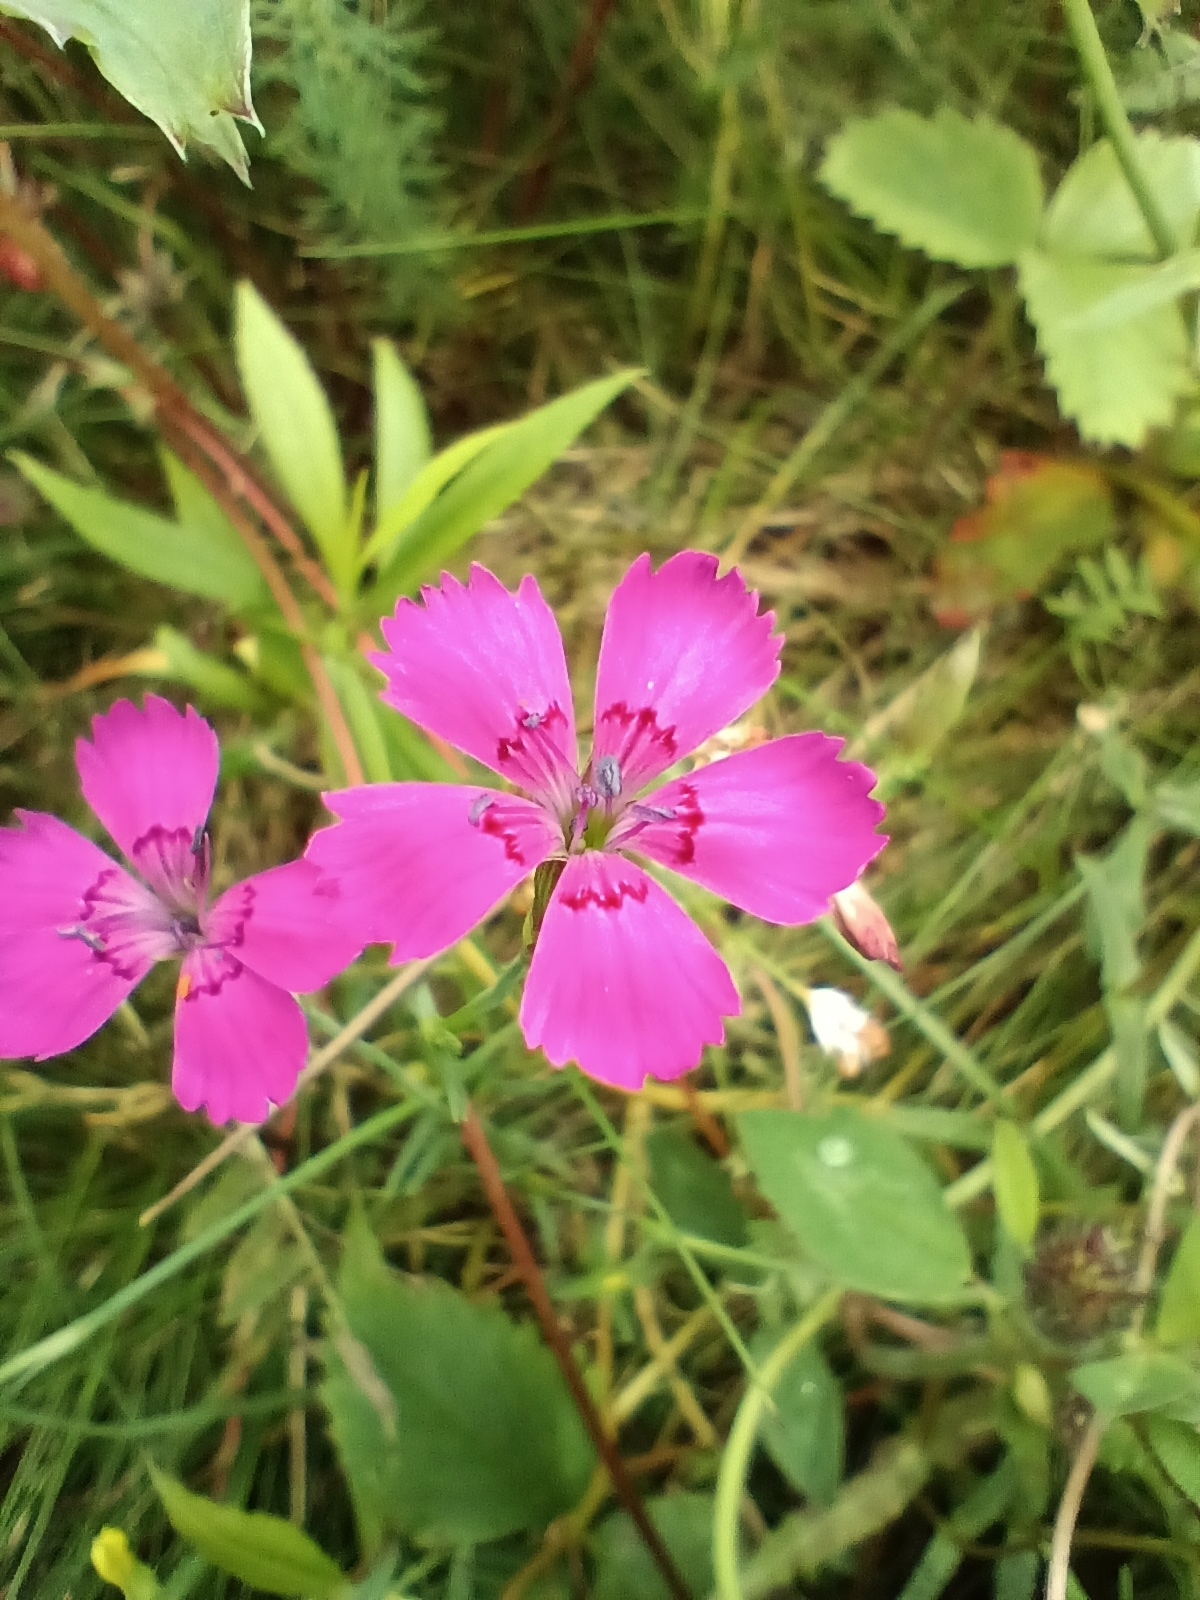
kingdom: Plantae
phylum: Tracheophyta
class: Magnoliopsida
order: Caryophyllales
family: Caryophyllaceae
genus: Dianthus
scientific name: Dianthus deltoides
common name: Maiden pink
